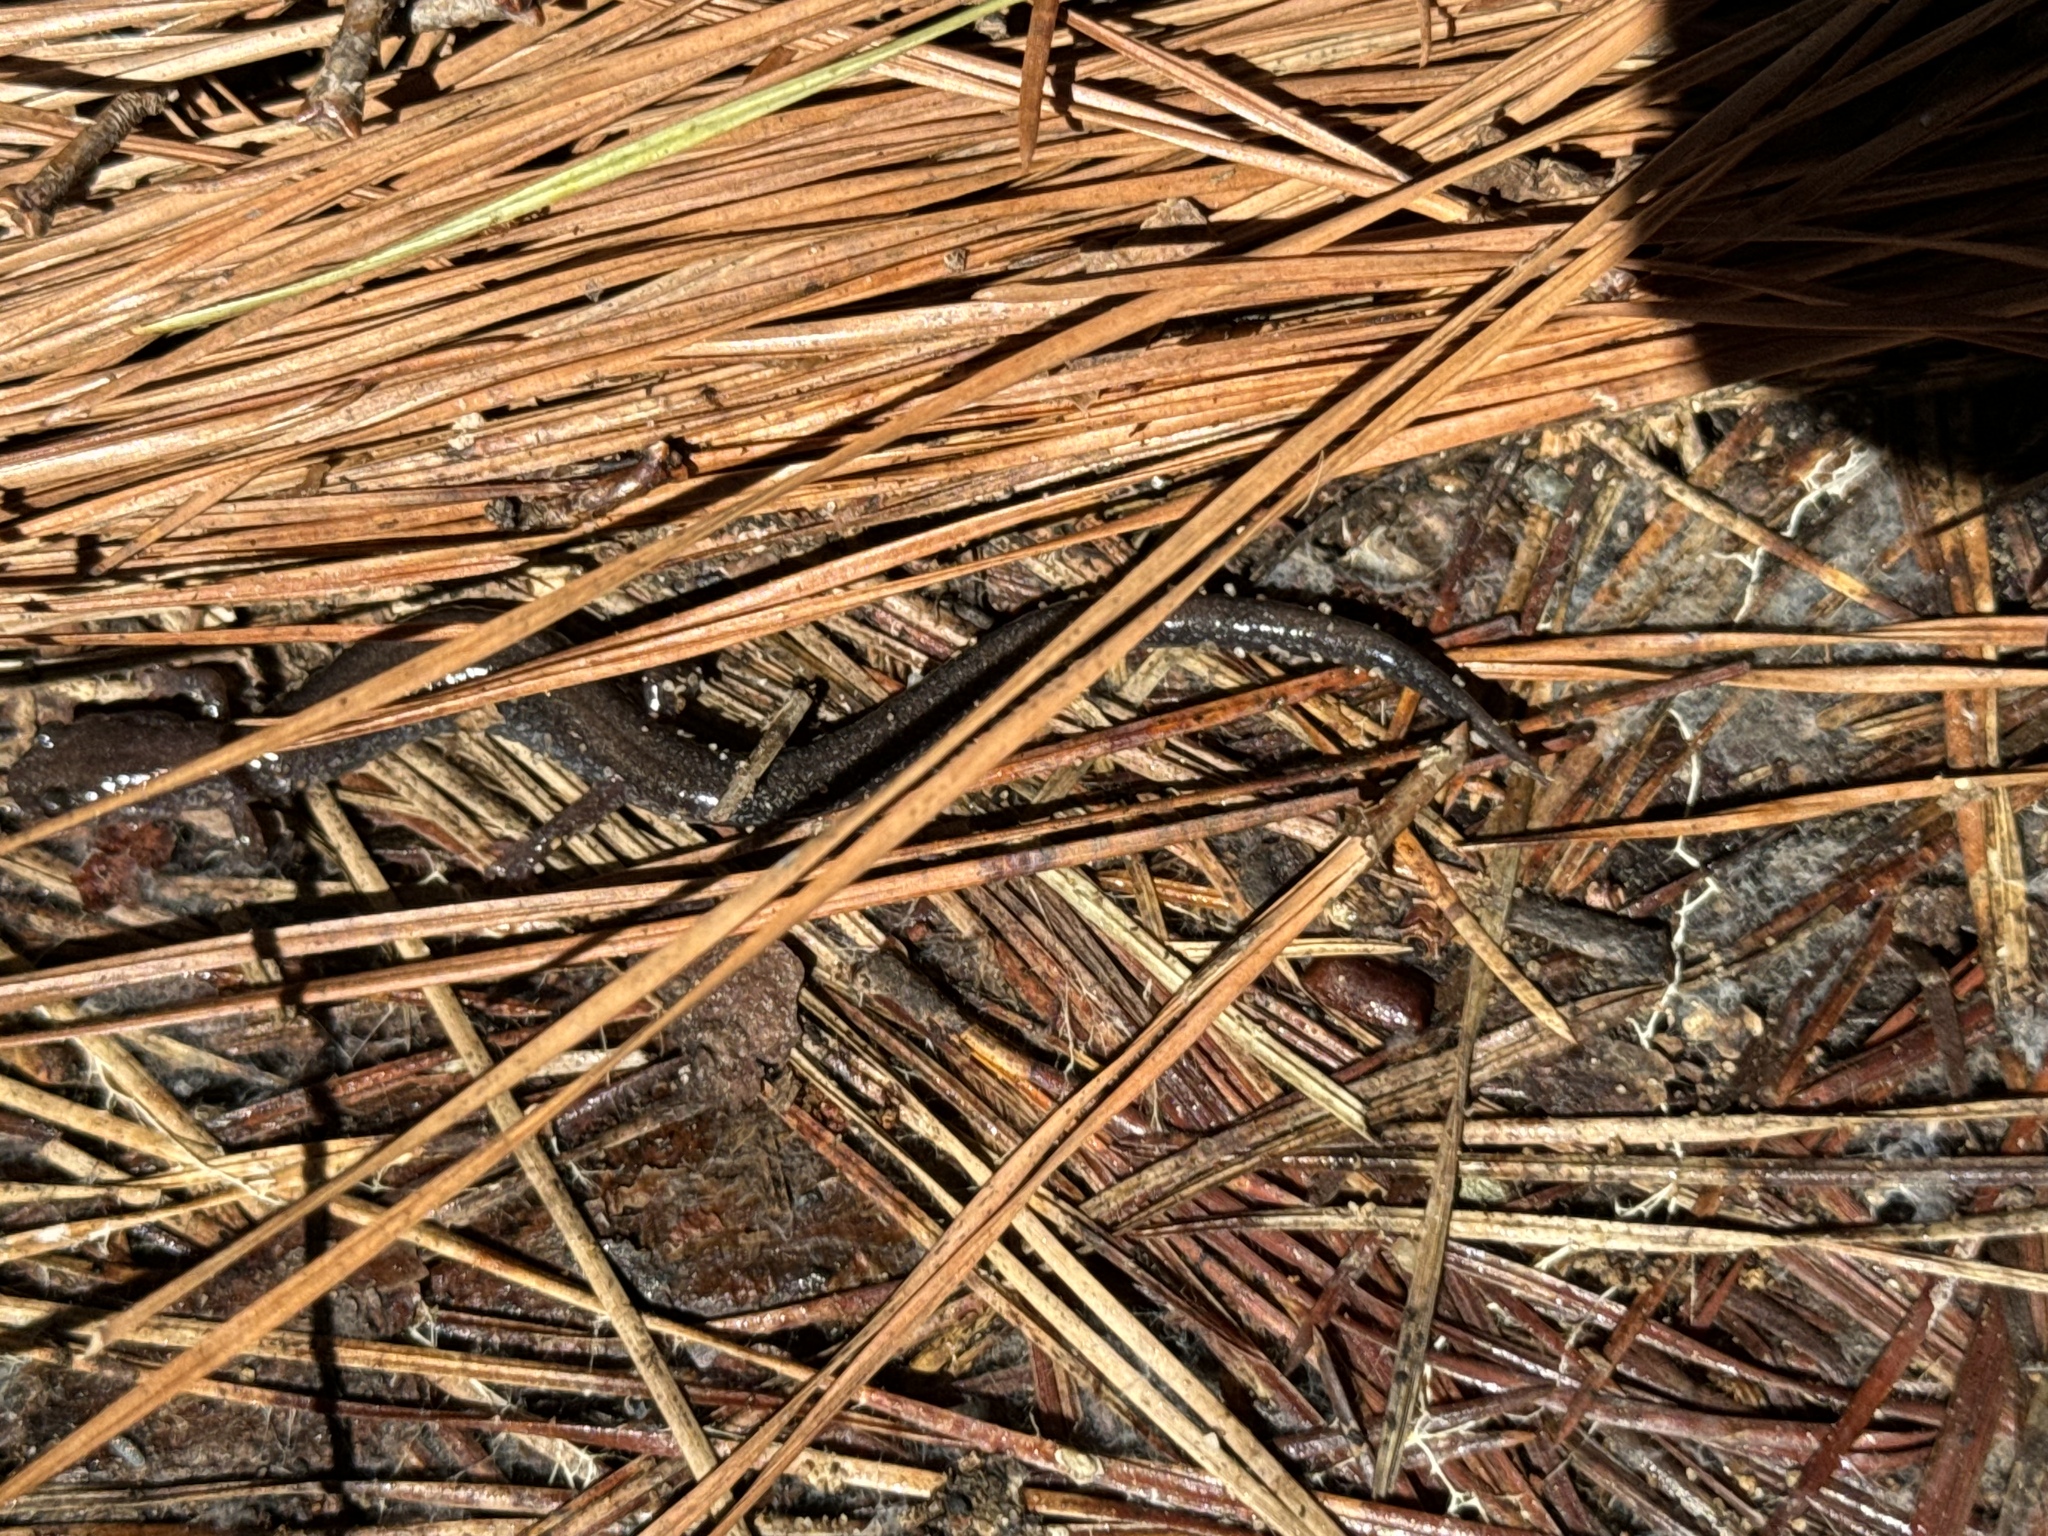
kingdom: Animalia
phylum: Chordata
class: Amphibia
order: Caudata
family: Plethodontidae
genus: Plethodon
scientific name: Plethodon cinereus
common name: Redback salamander
